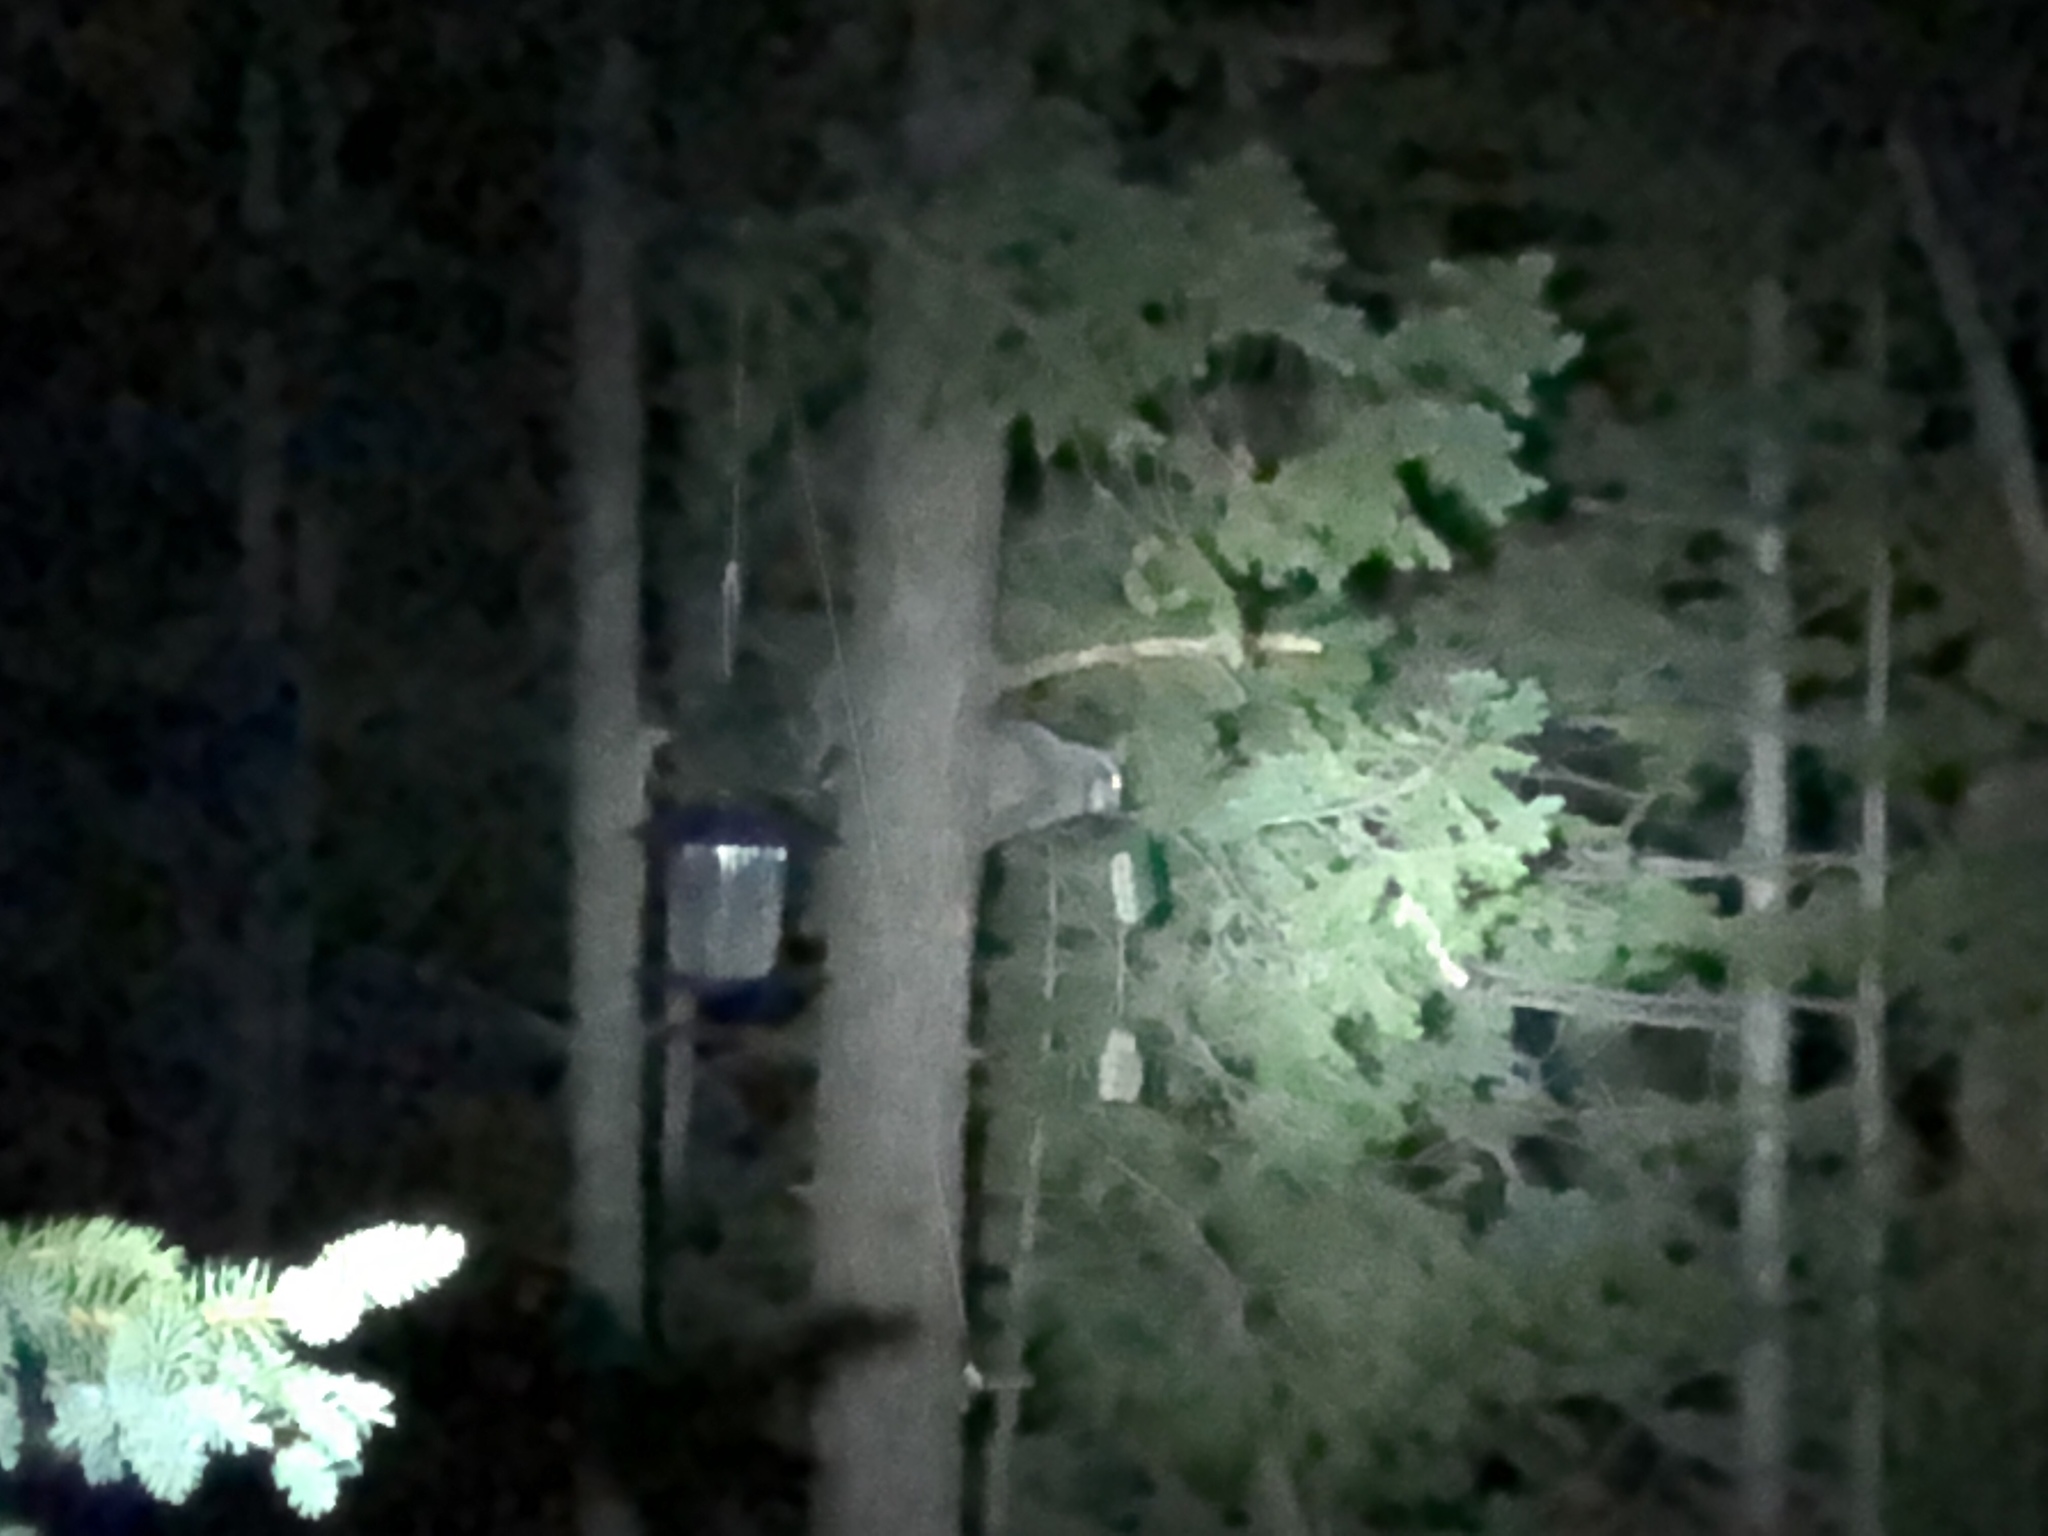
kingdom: Animalia
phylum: Chordata
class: Mammalia
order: Carnivora
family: Procyonidae
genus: Procyon
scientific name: Procyon lotor
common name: Raccoon
